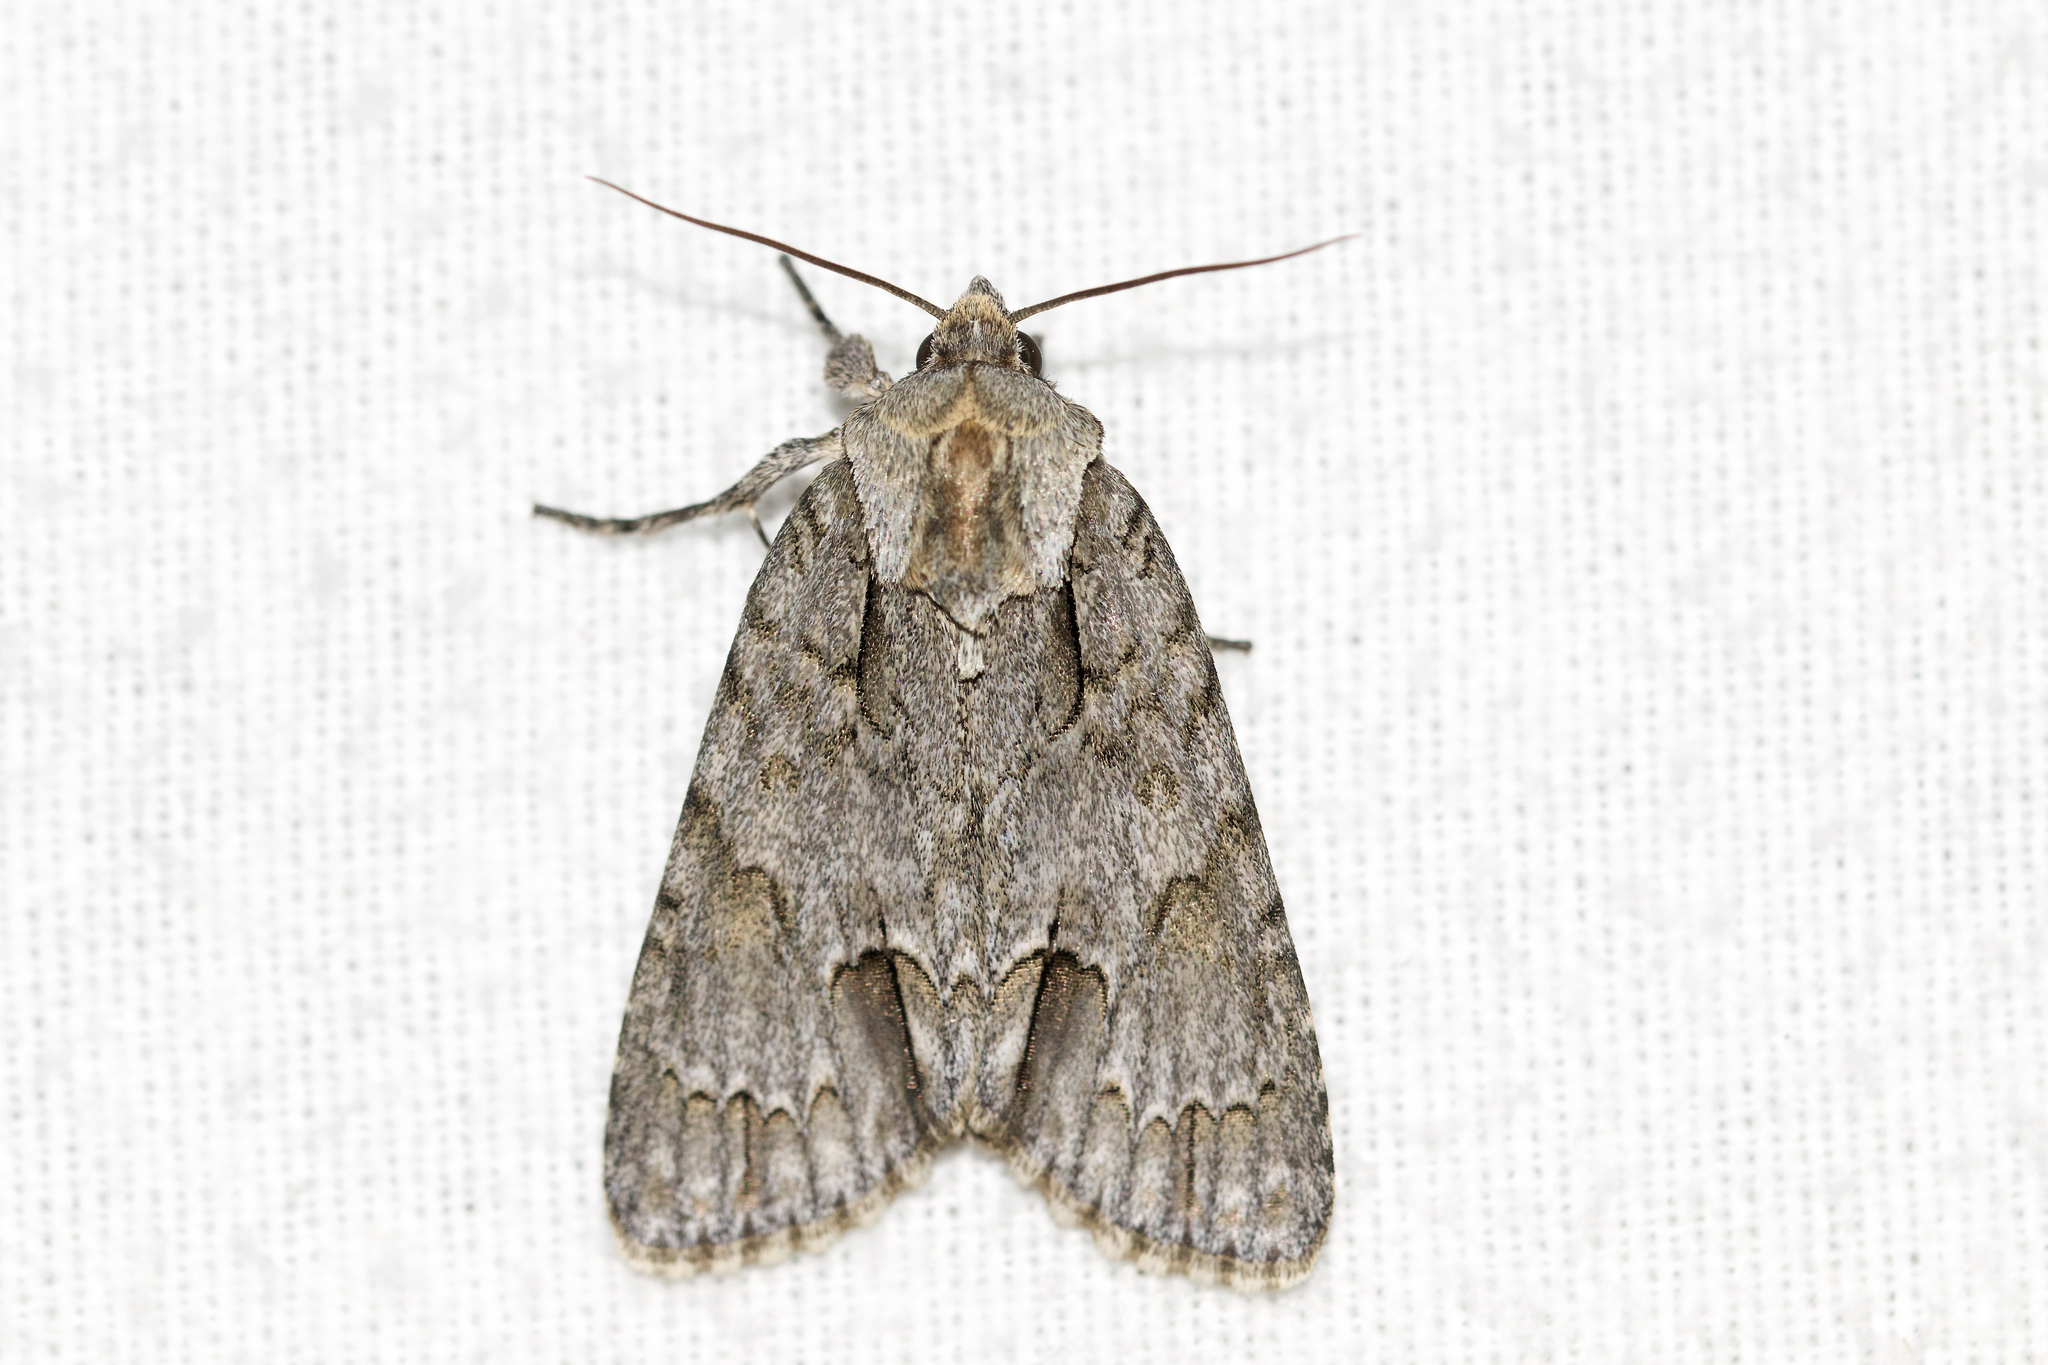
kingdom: Animalia
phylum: Arthropoda
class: Insecta
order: Lepidoptera
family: Noctuidae
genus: Acronicta
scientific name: Acronicta morula
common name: Ochre dagger
